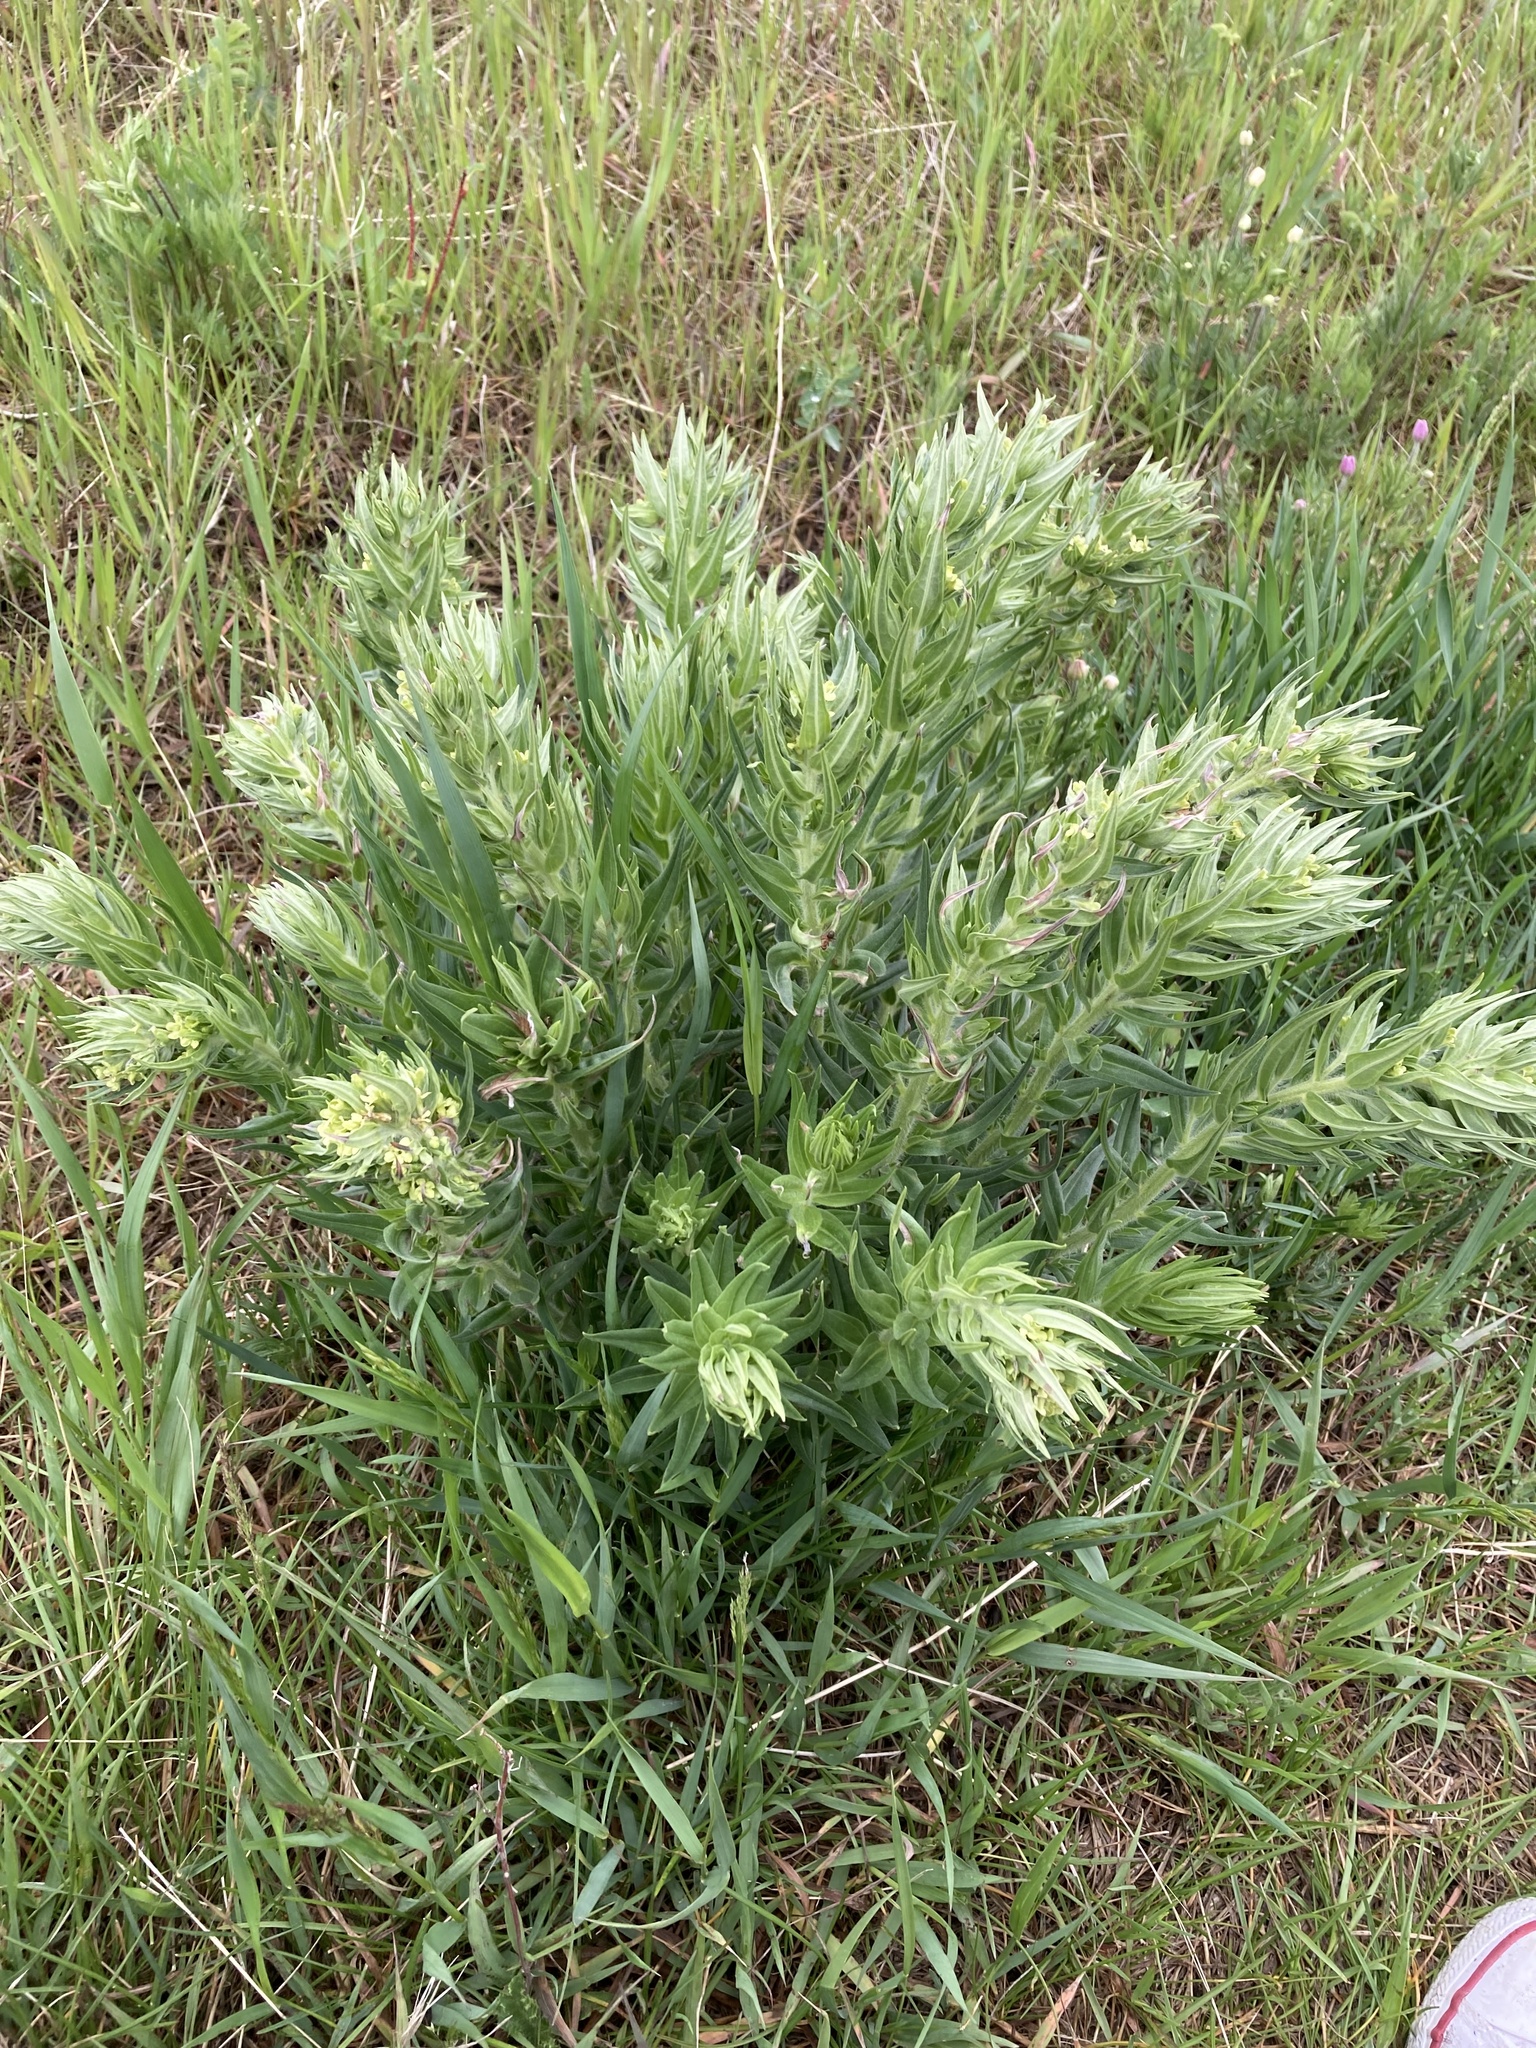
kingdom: Plantae
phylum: Tracheophyta
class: Magnoliopsida
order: Boraginales
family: Boraginaceae
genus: Lithospermum
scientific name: Lithospermum ruderale
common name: Western gromwell
